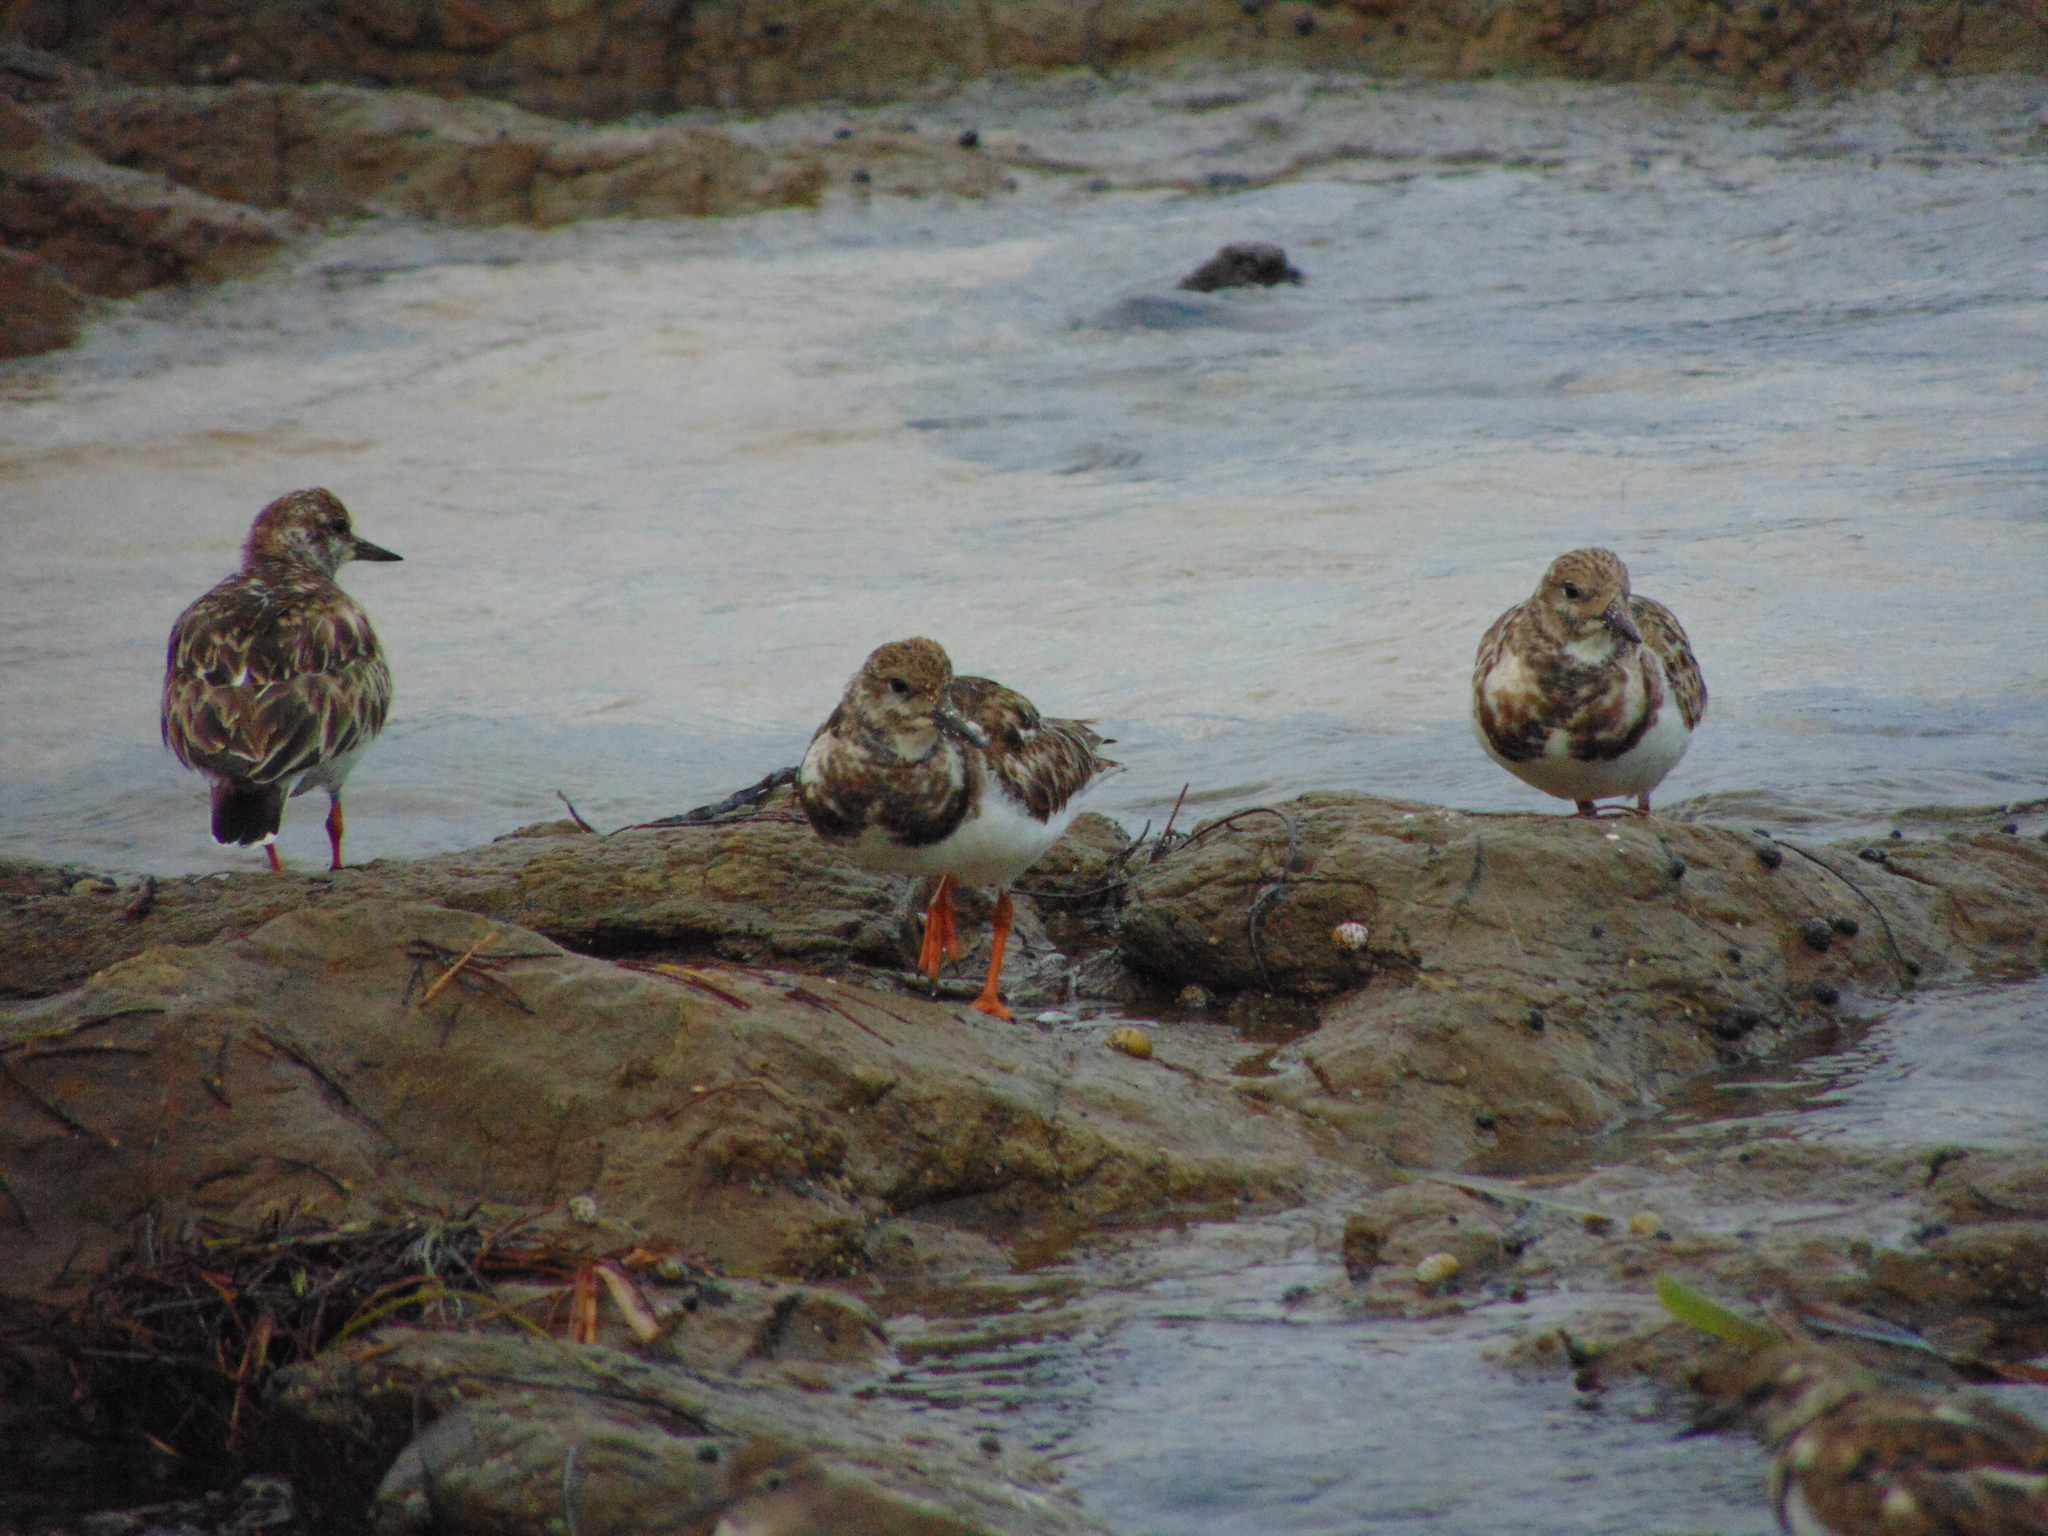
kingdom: Animalia
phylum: Chordata
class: Aves
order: Charadriiformes
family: Scolopacidae
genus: Arenaria
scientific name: Arenaria interpres
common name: Ruddy turnstone
